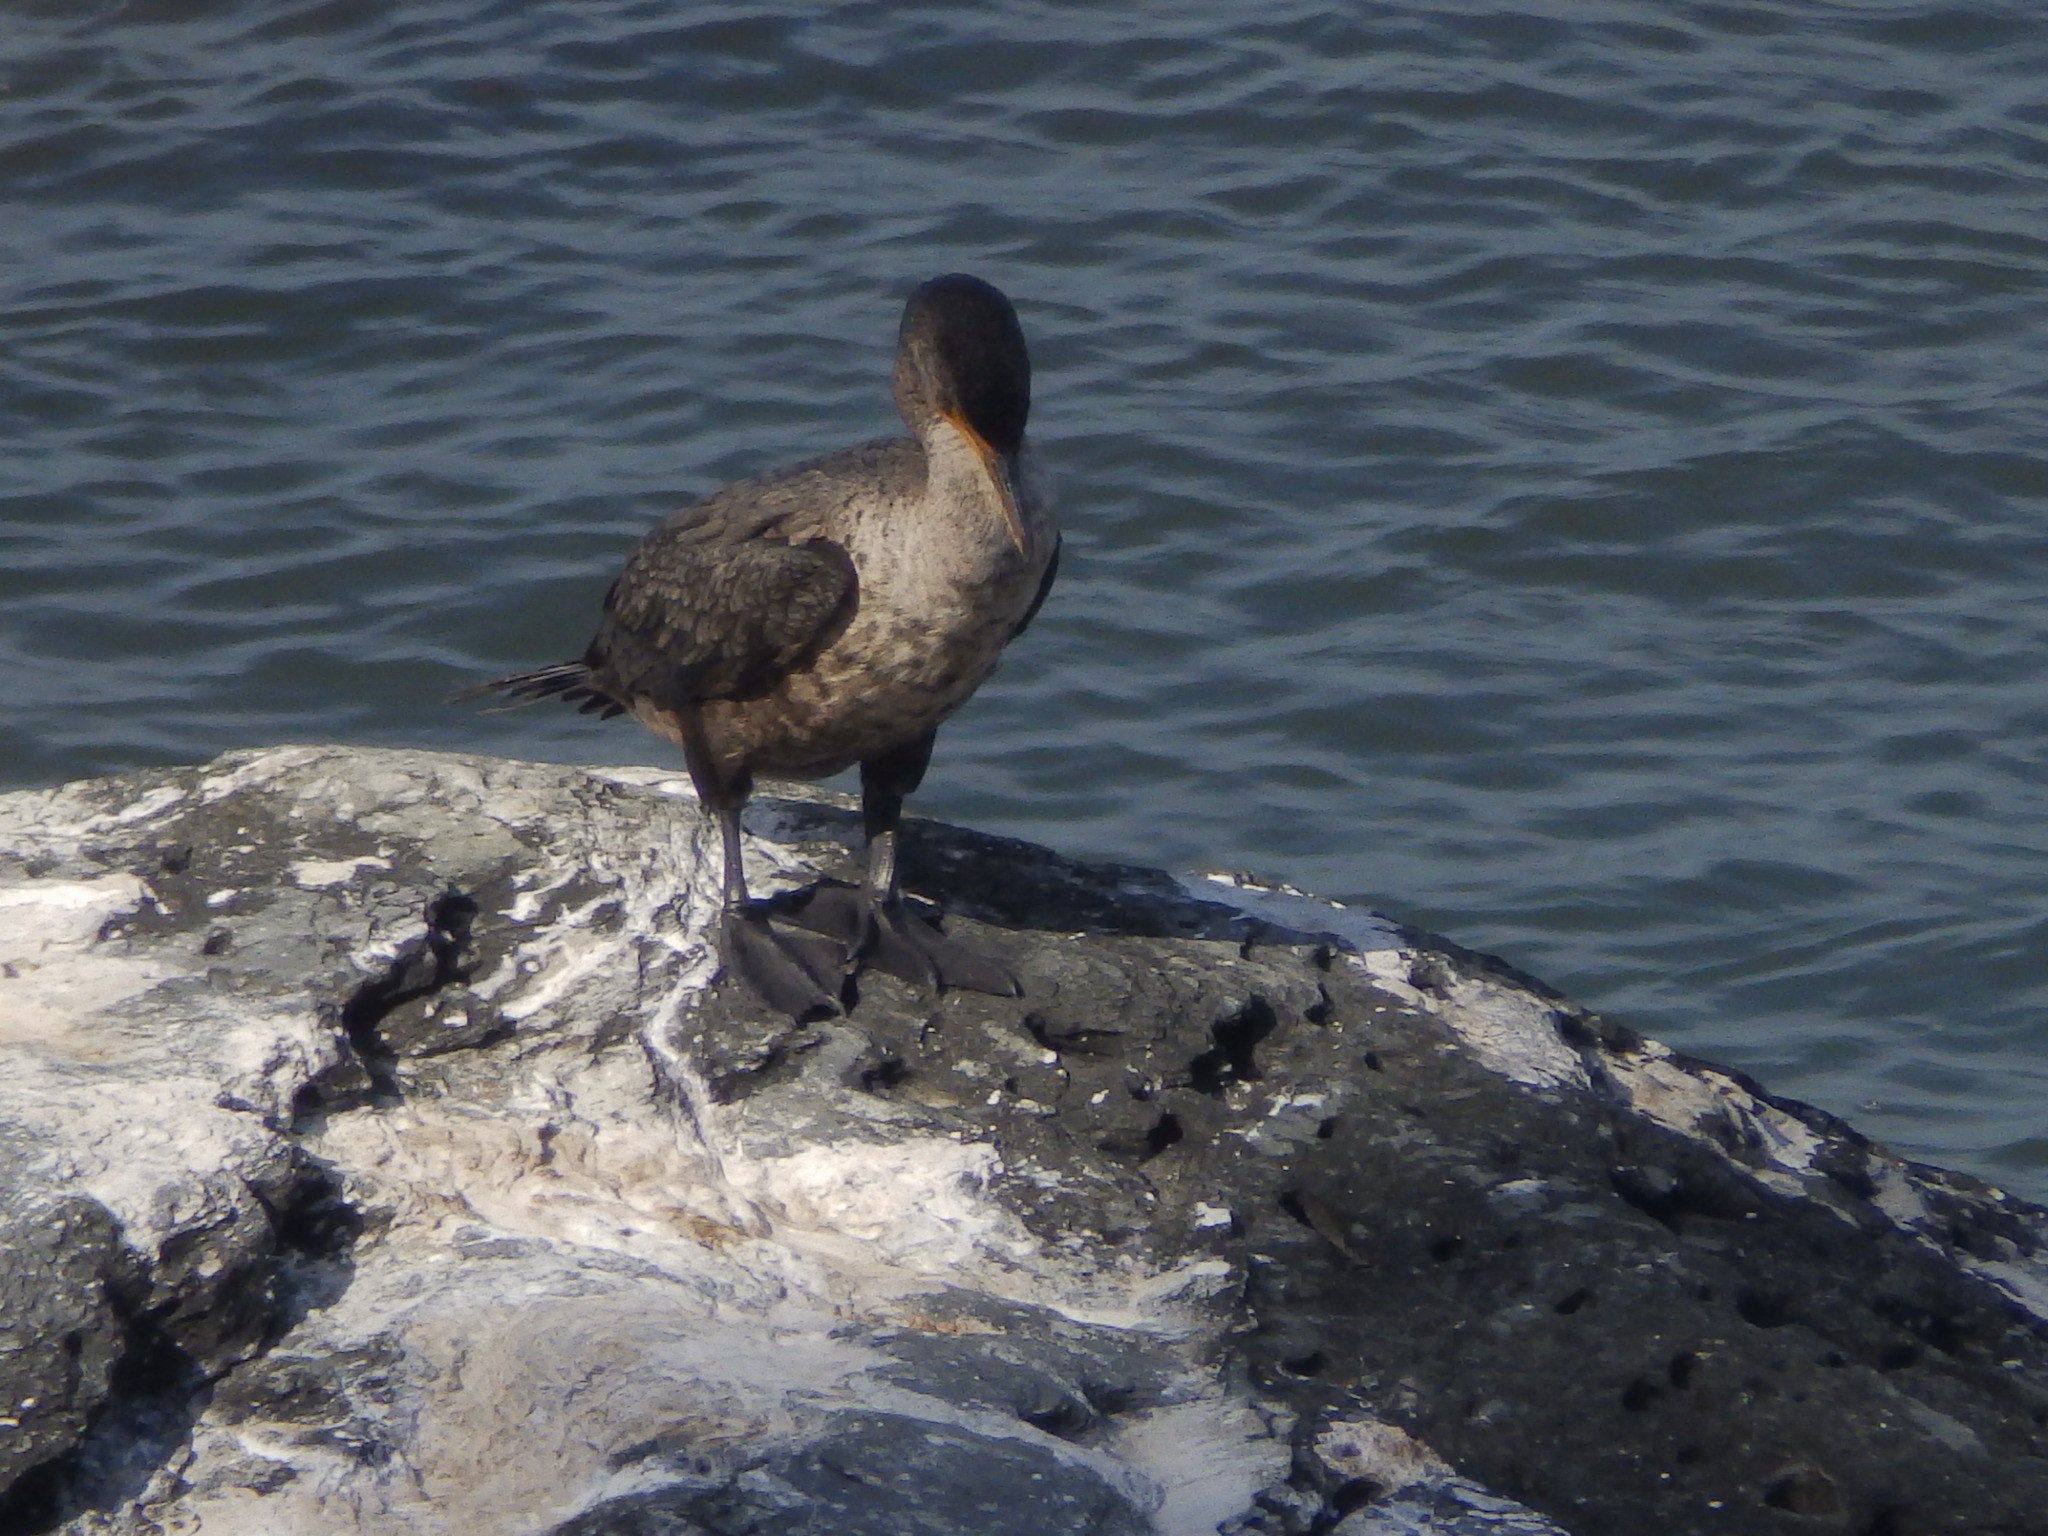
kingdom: Animalia
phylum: Chordata
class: Aves
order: Suliformes
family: Phalacrocoracidae
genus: Phalacrocorax
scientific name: Phalacrocorax auritus
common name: Double-crested cormorant
